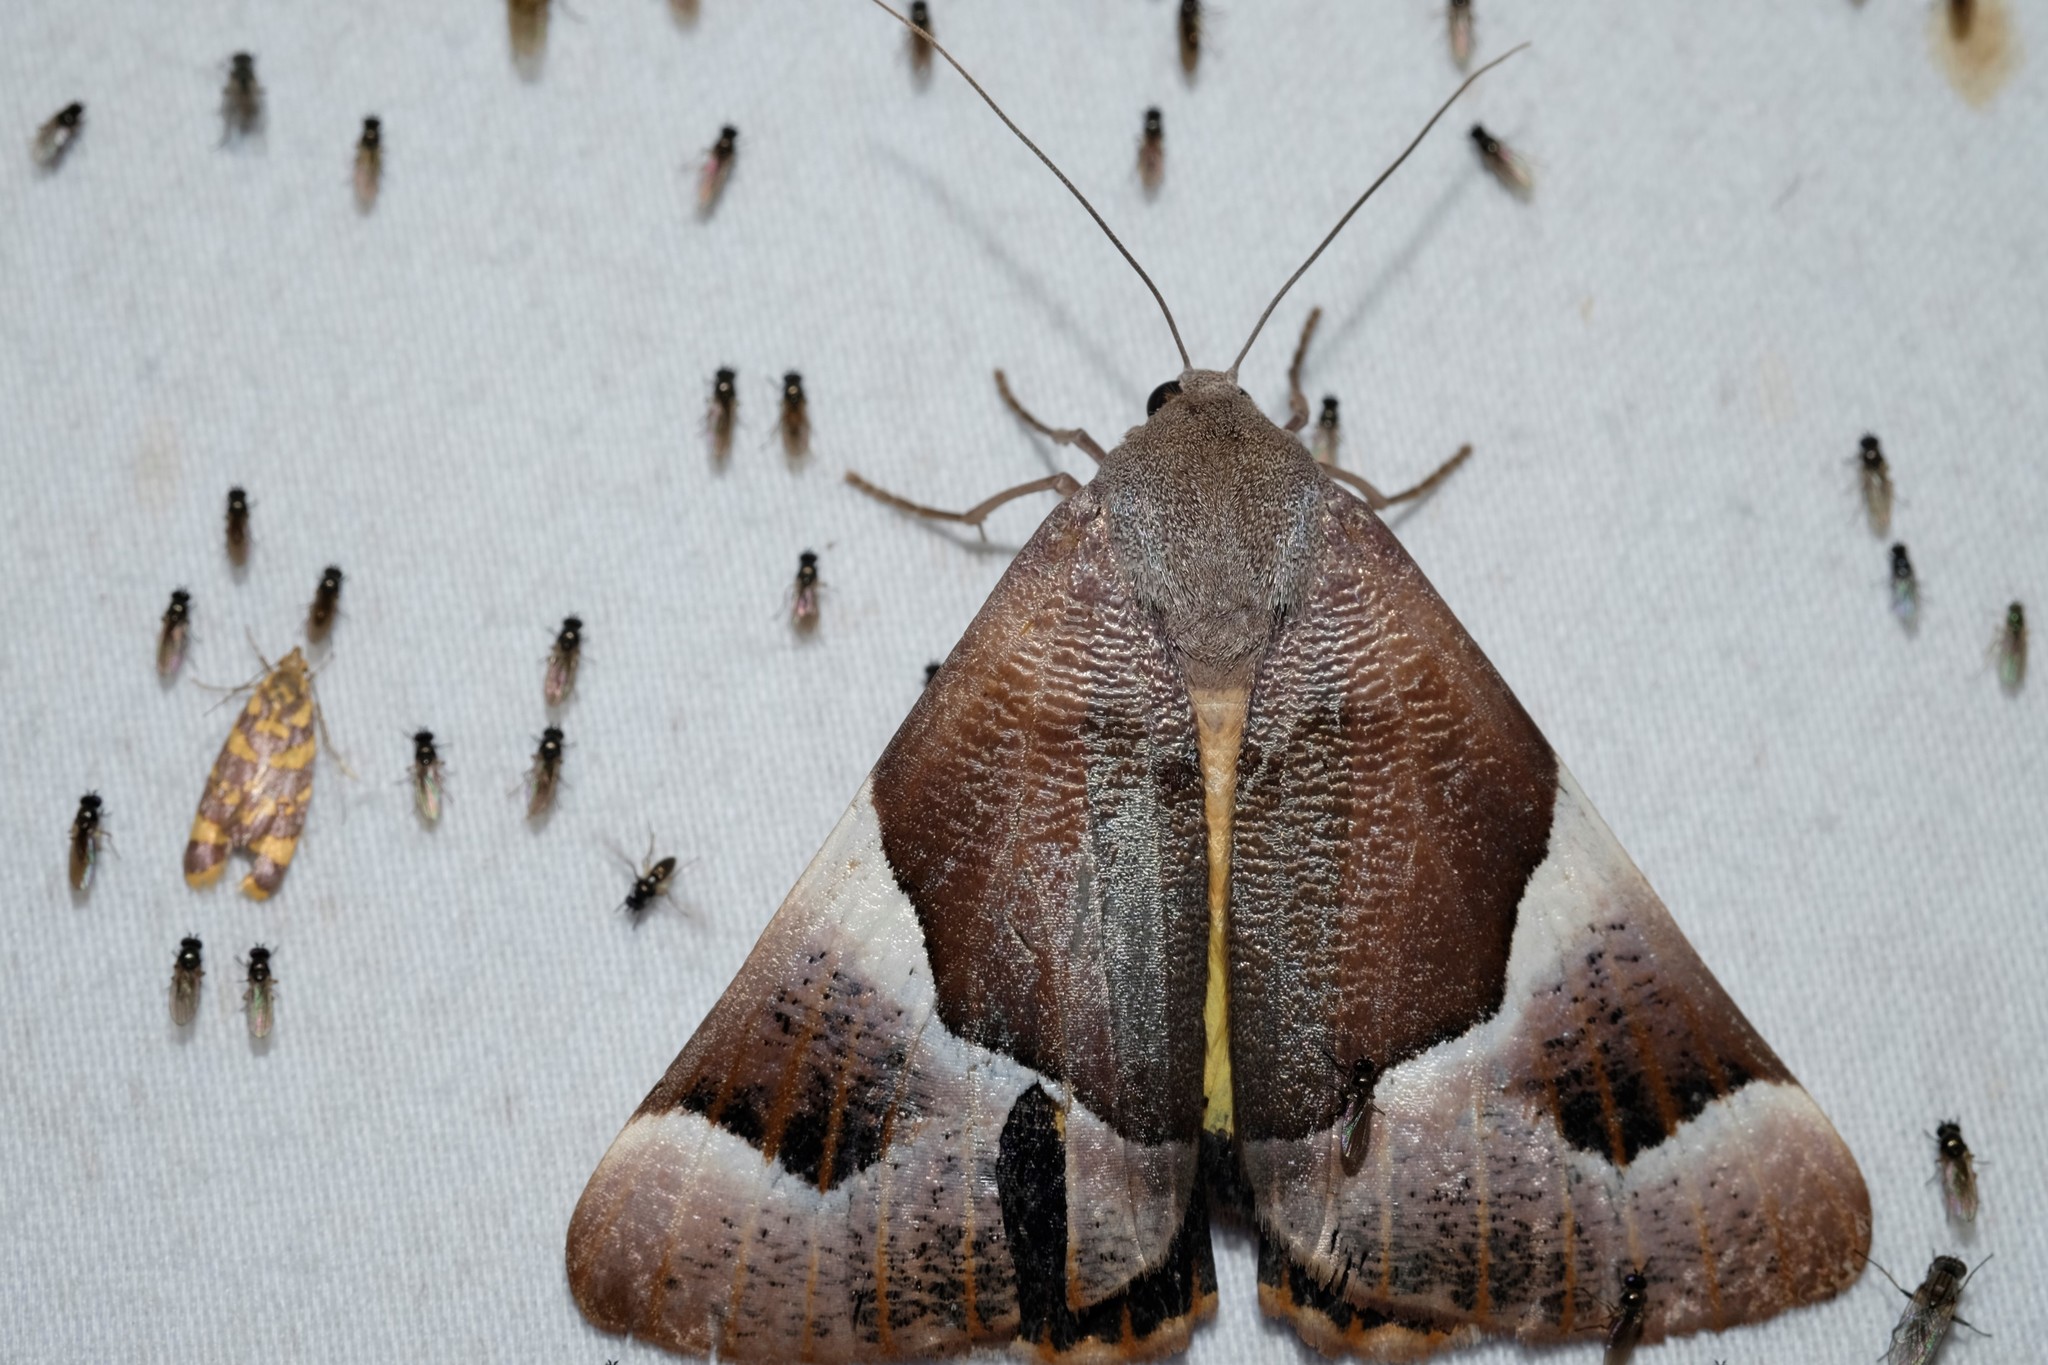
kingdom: Animalia
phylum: Arthropoda
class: Insecta
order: Lepidoptera
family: Geometridae
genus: Niceteria
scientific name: Niceteria macrocosma
